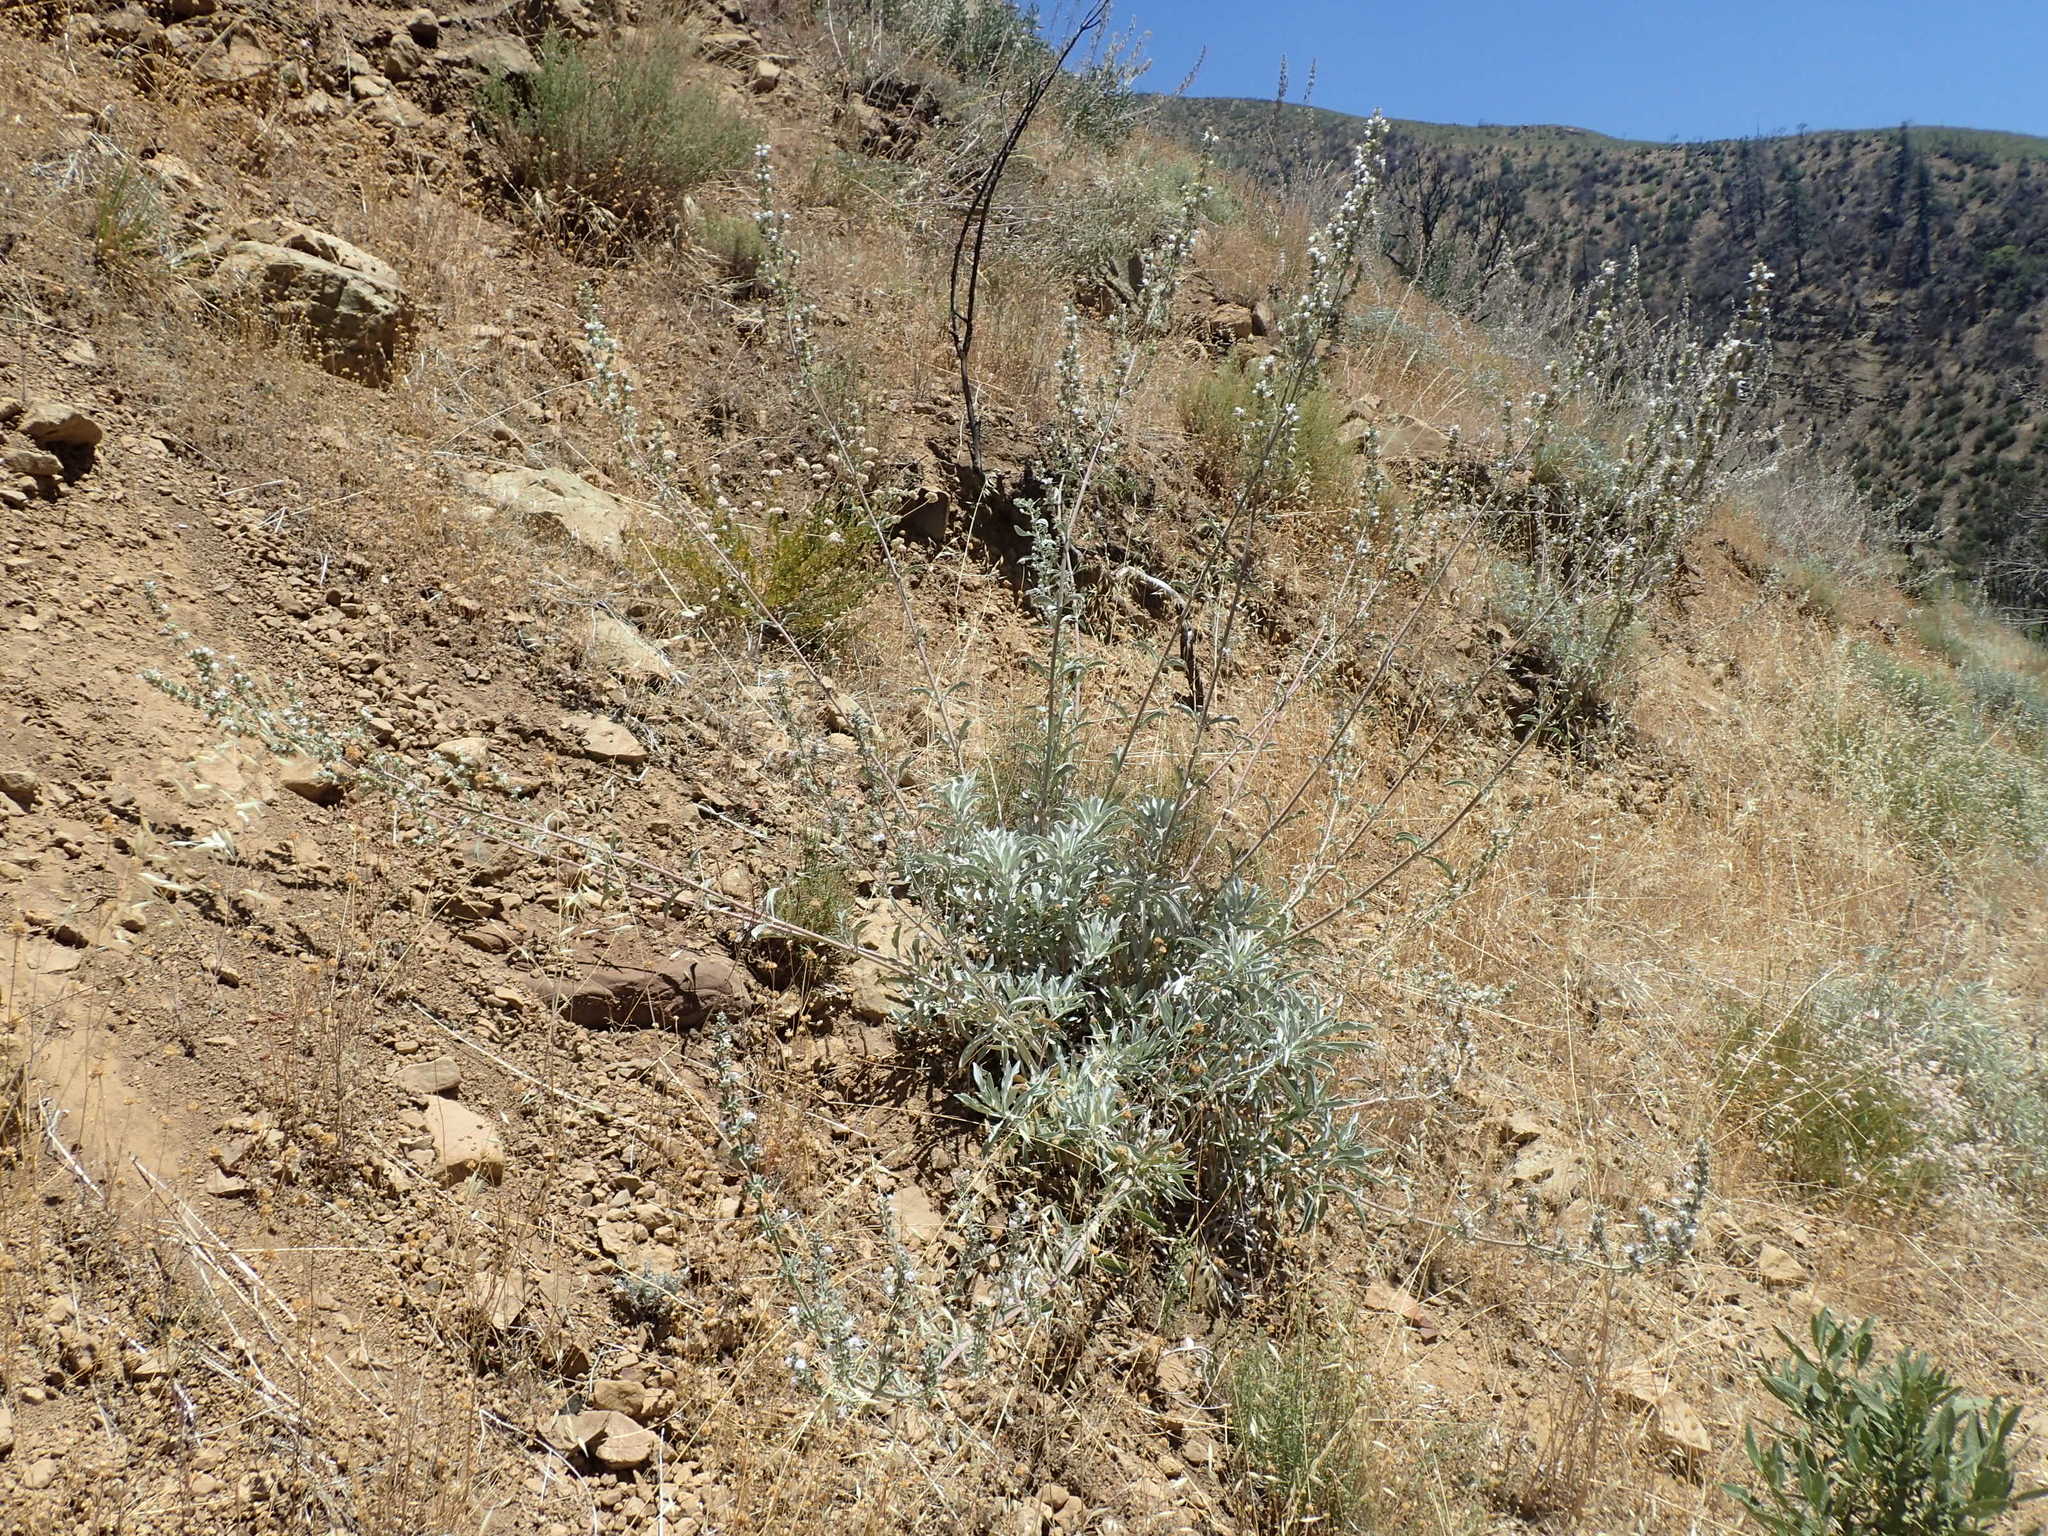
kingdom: Plantae
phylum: Tracheophyta
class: Magnoliopsida
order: Lamiales
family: Lamiaceae
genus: Salvia
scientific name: Salvia apiana
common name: White sage
